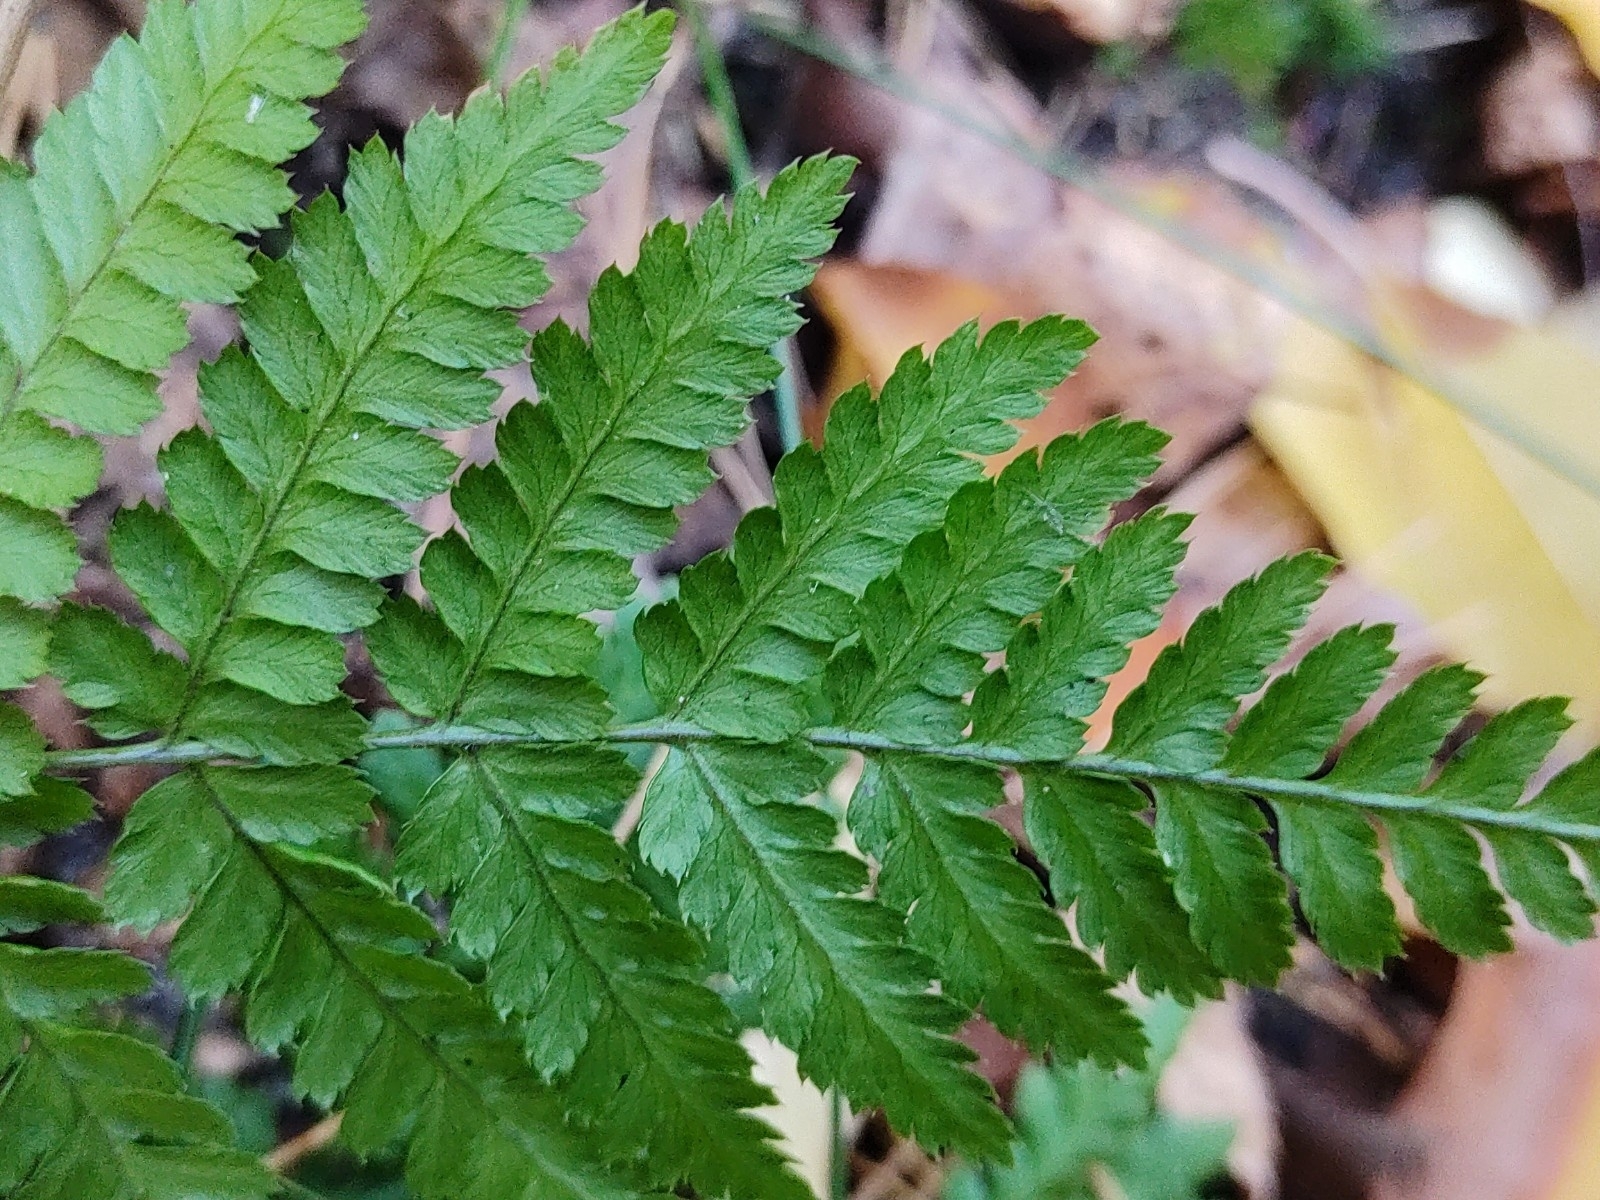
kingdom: Plantae
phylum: Tracheophyta
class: Polypodiopsida
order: Polypodiales
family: Dryopteridaceae
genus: Dryopteris
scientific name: Dryopteris carthusiana
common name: Narrow buckler-fern
